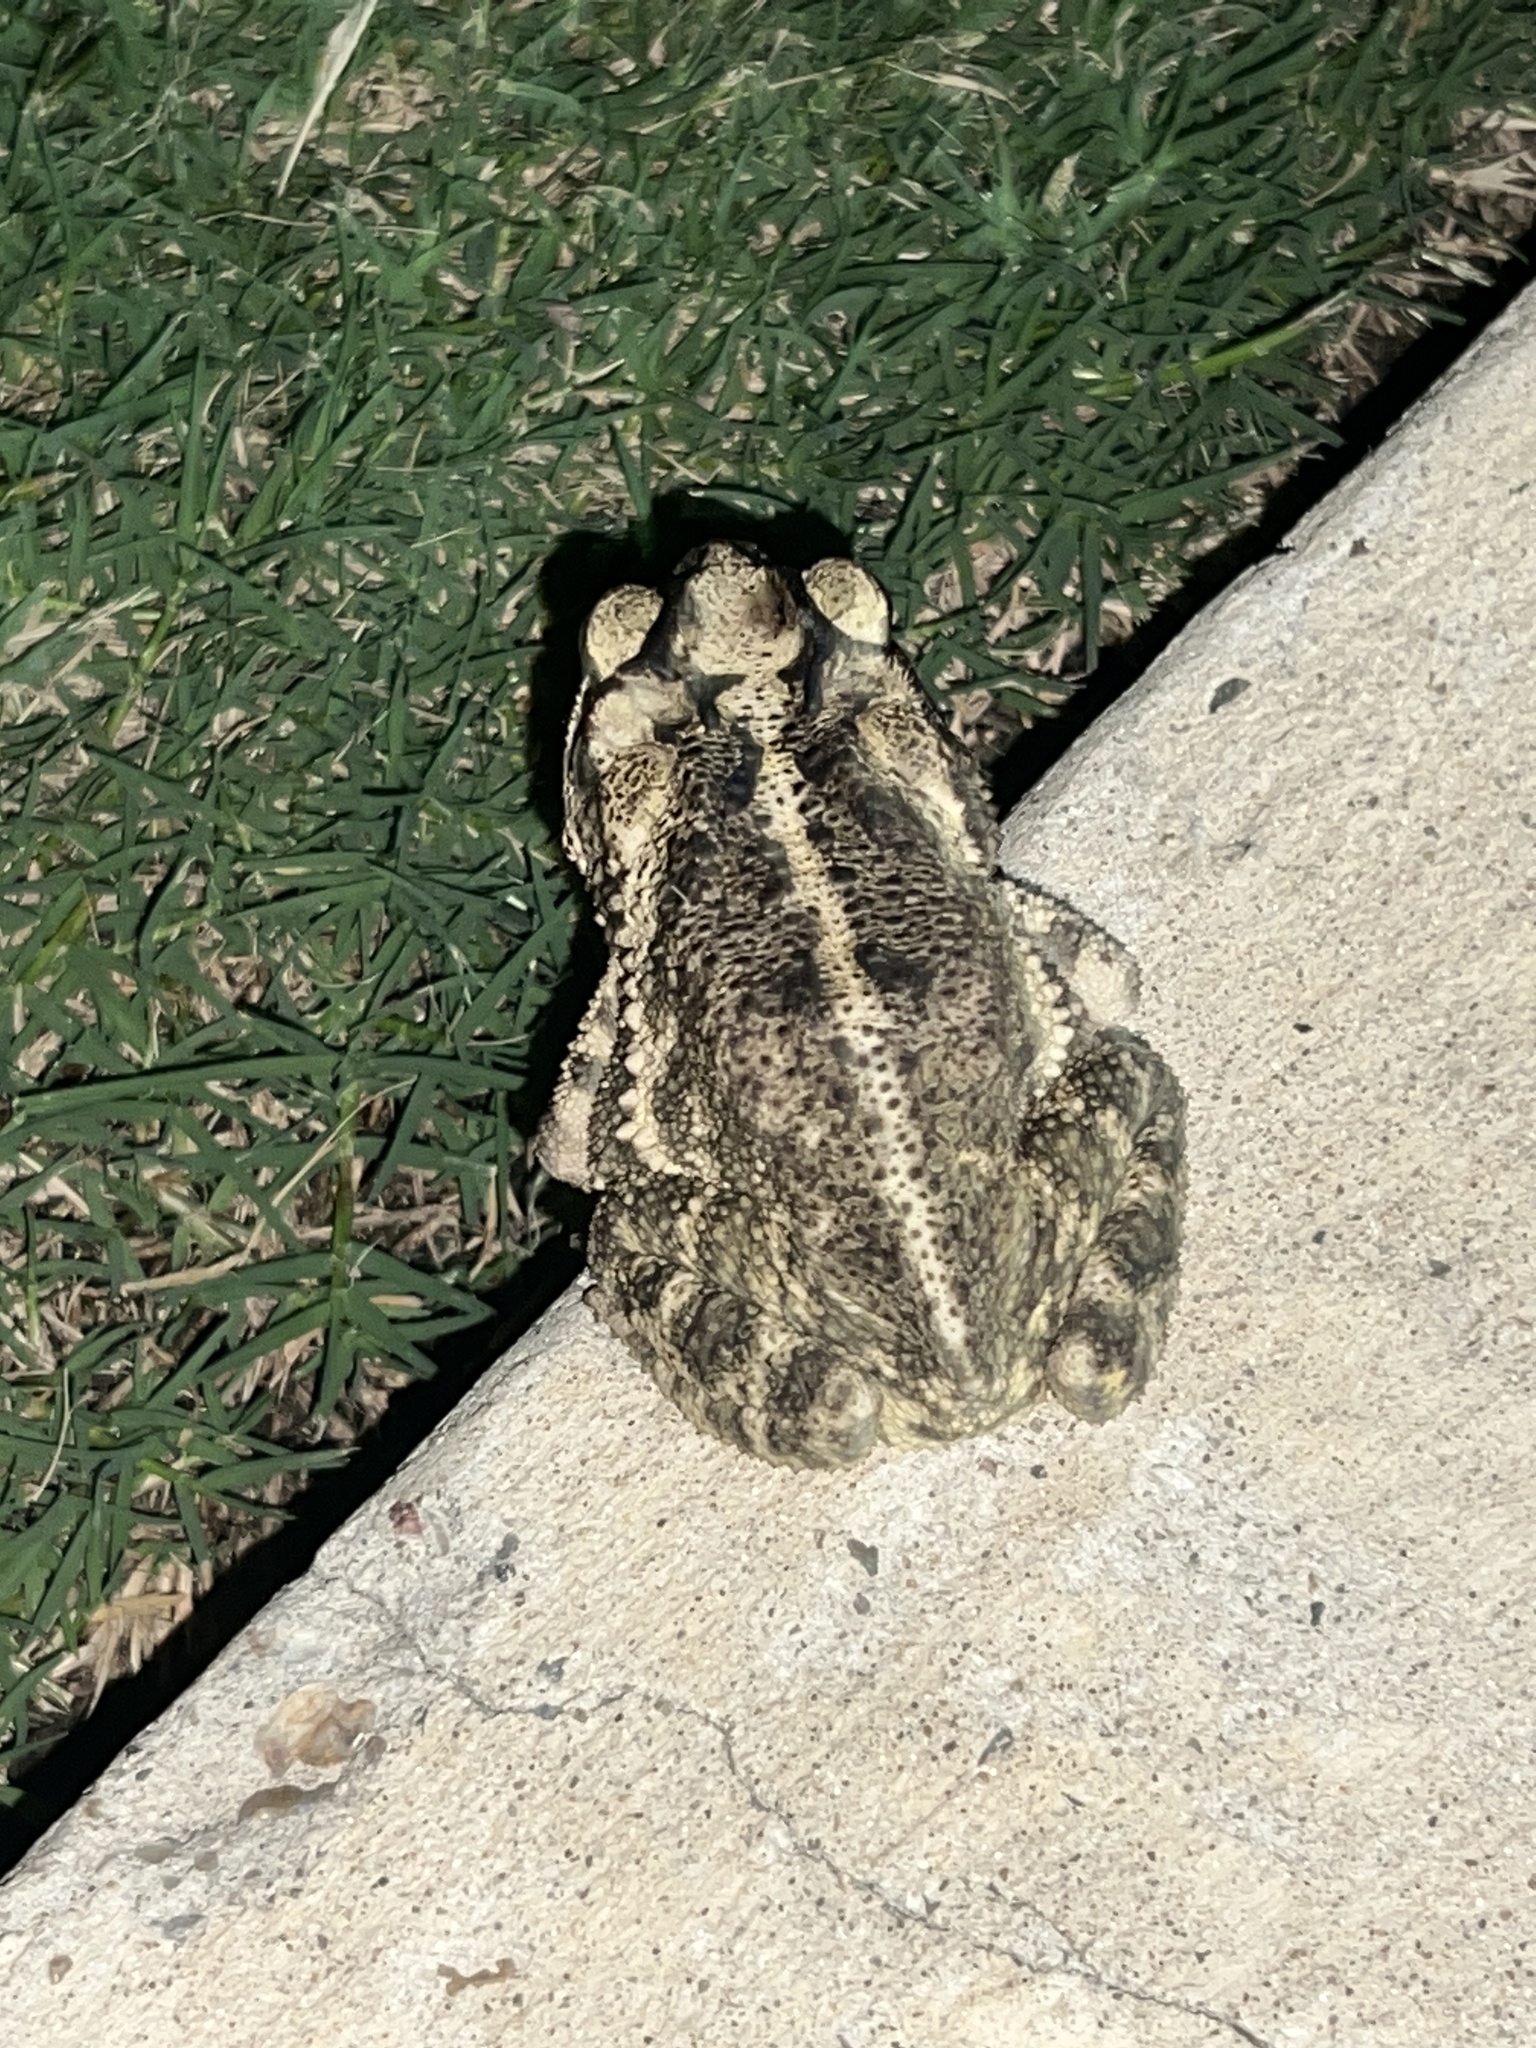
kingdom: Animalia
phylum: Chordata
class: Amphibia
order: Anura
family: Bufonidae
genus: Incilius
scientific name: Incilius nebulifer
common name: Gulf coast toad
